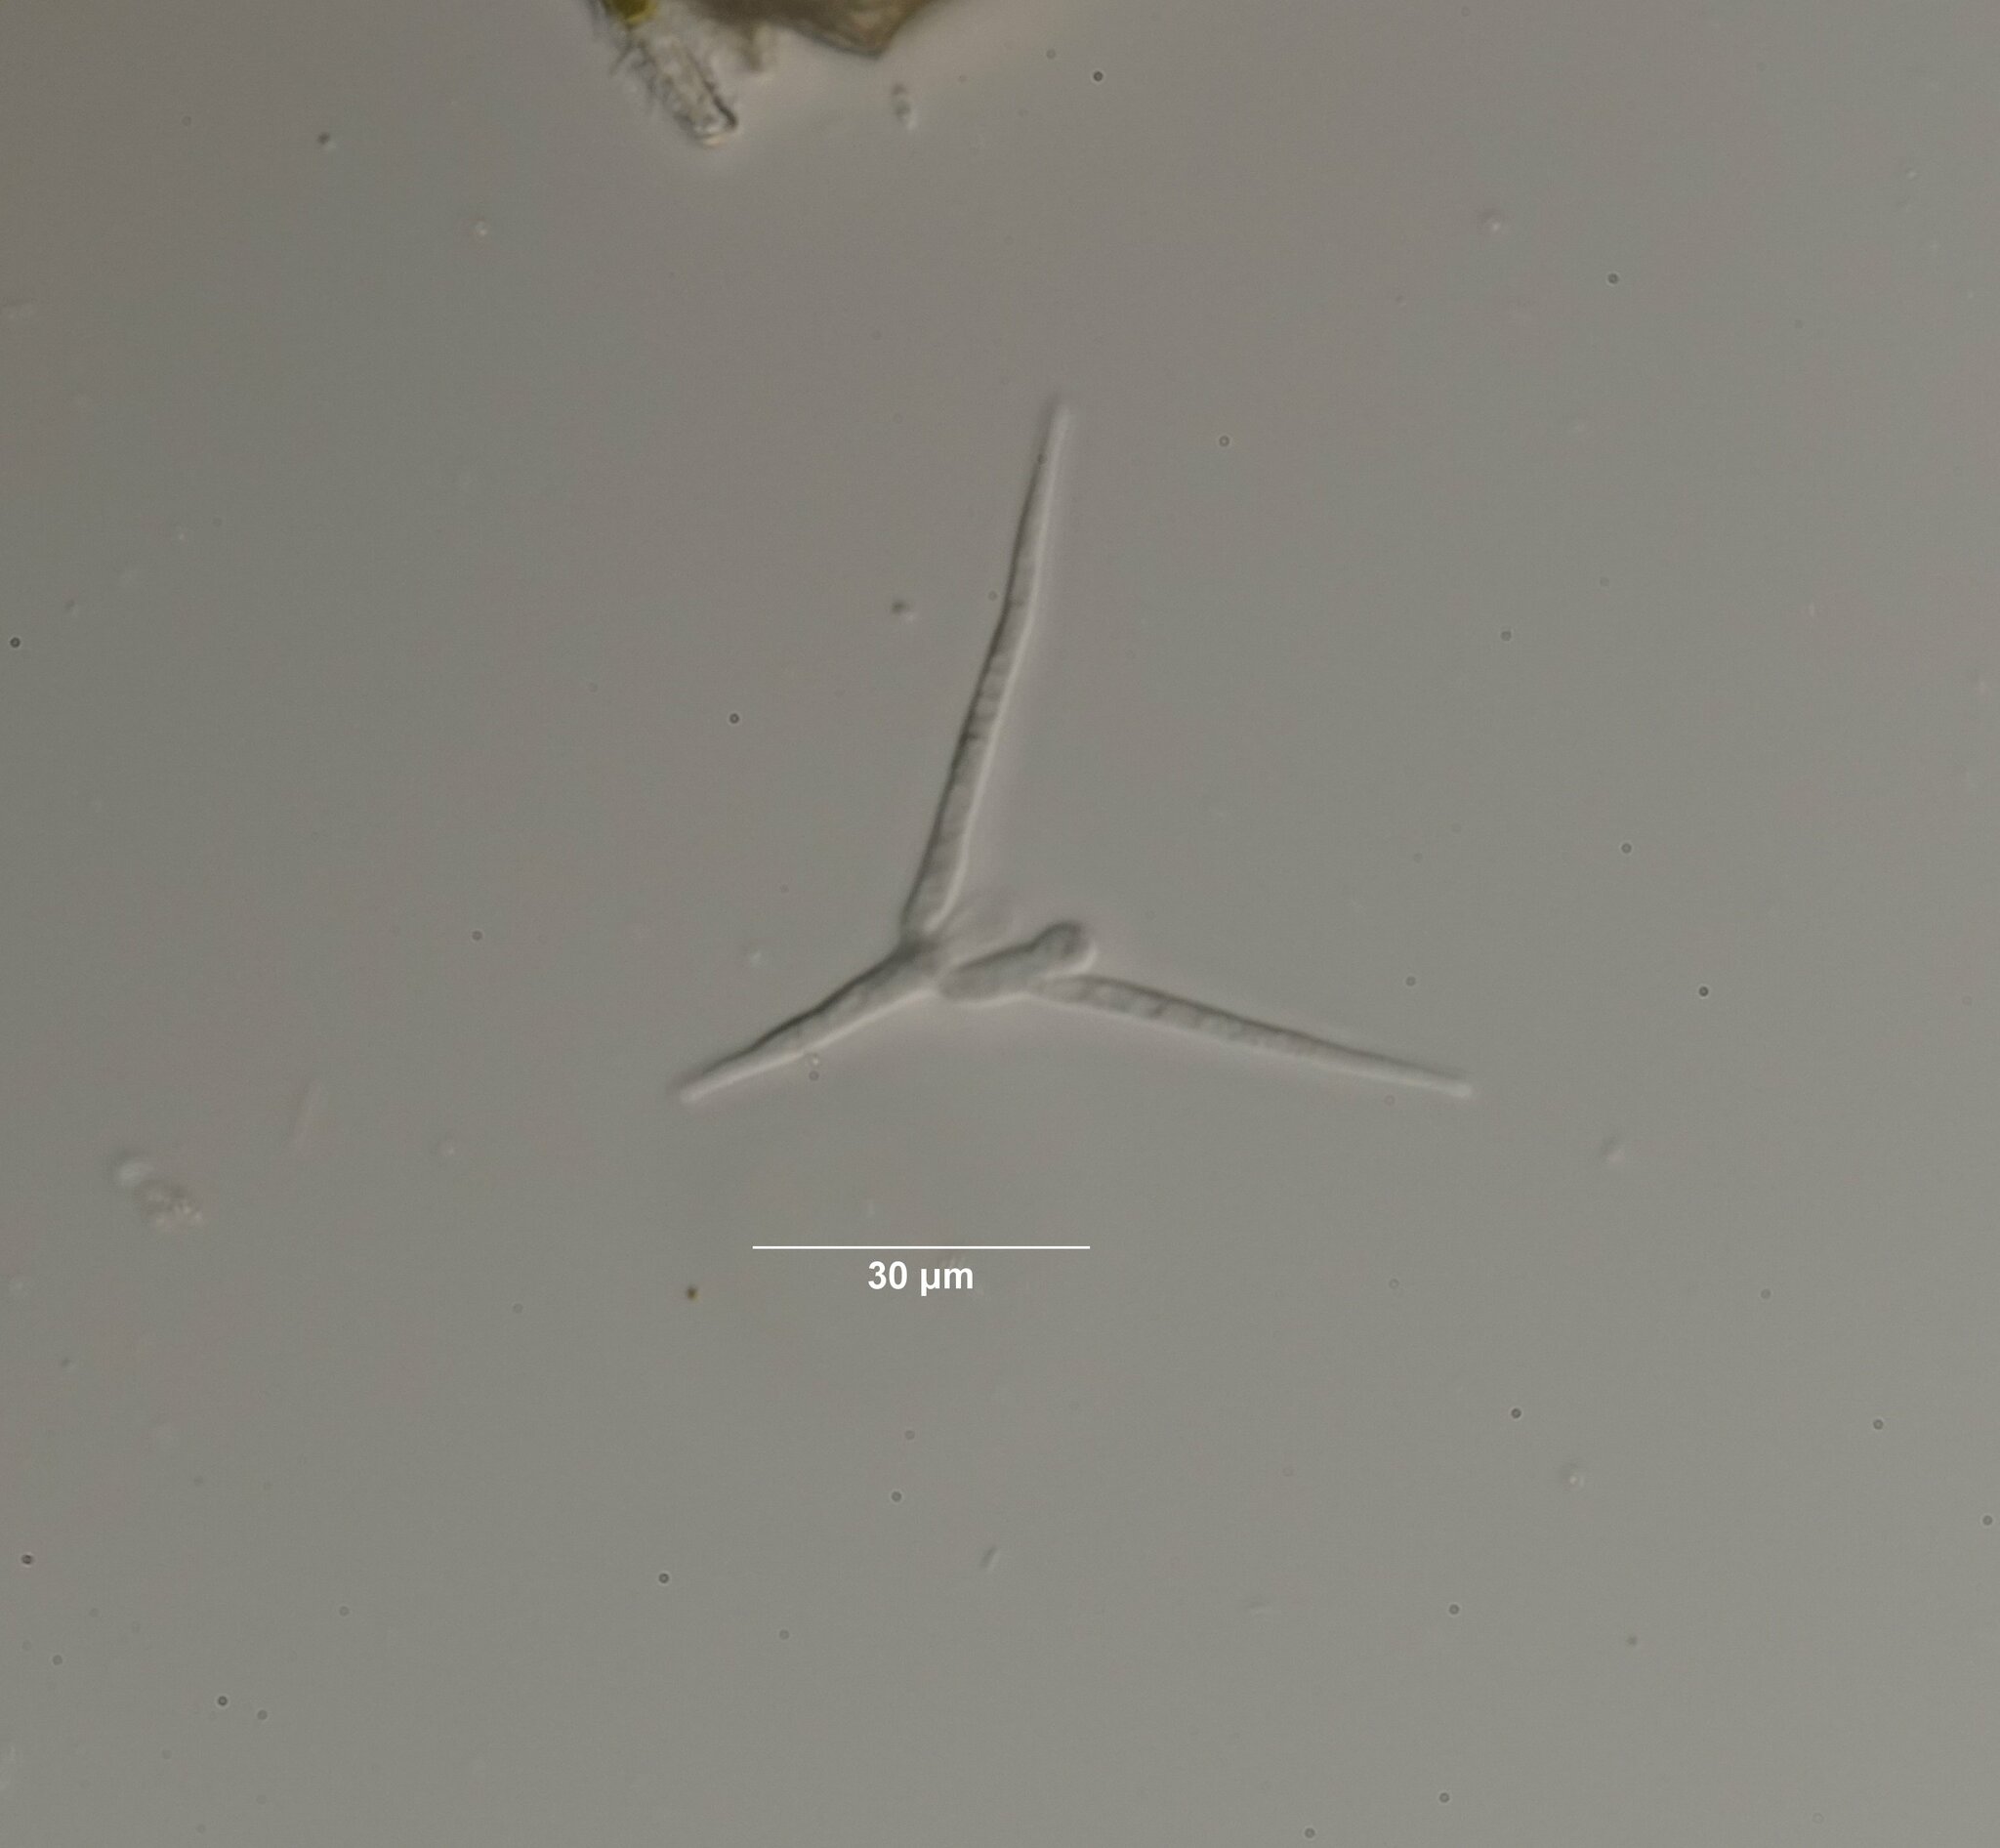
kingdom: Fungi
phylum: Ascomycota
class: Leotiomycetes
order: Helotiales
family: Helotiaceae
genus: Tetracladium
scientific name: Tetracladium marchalianum
